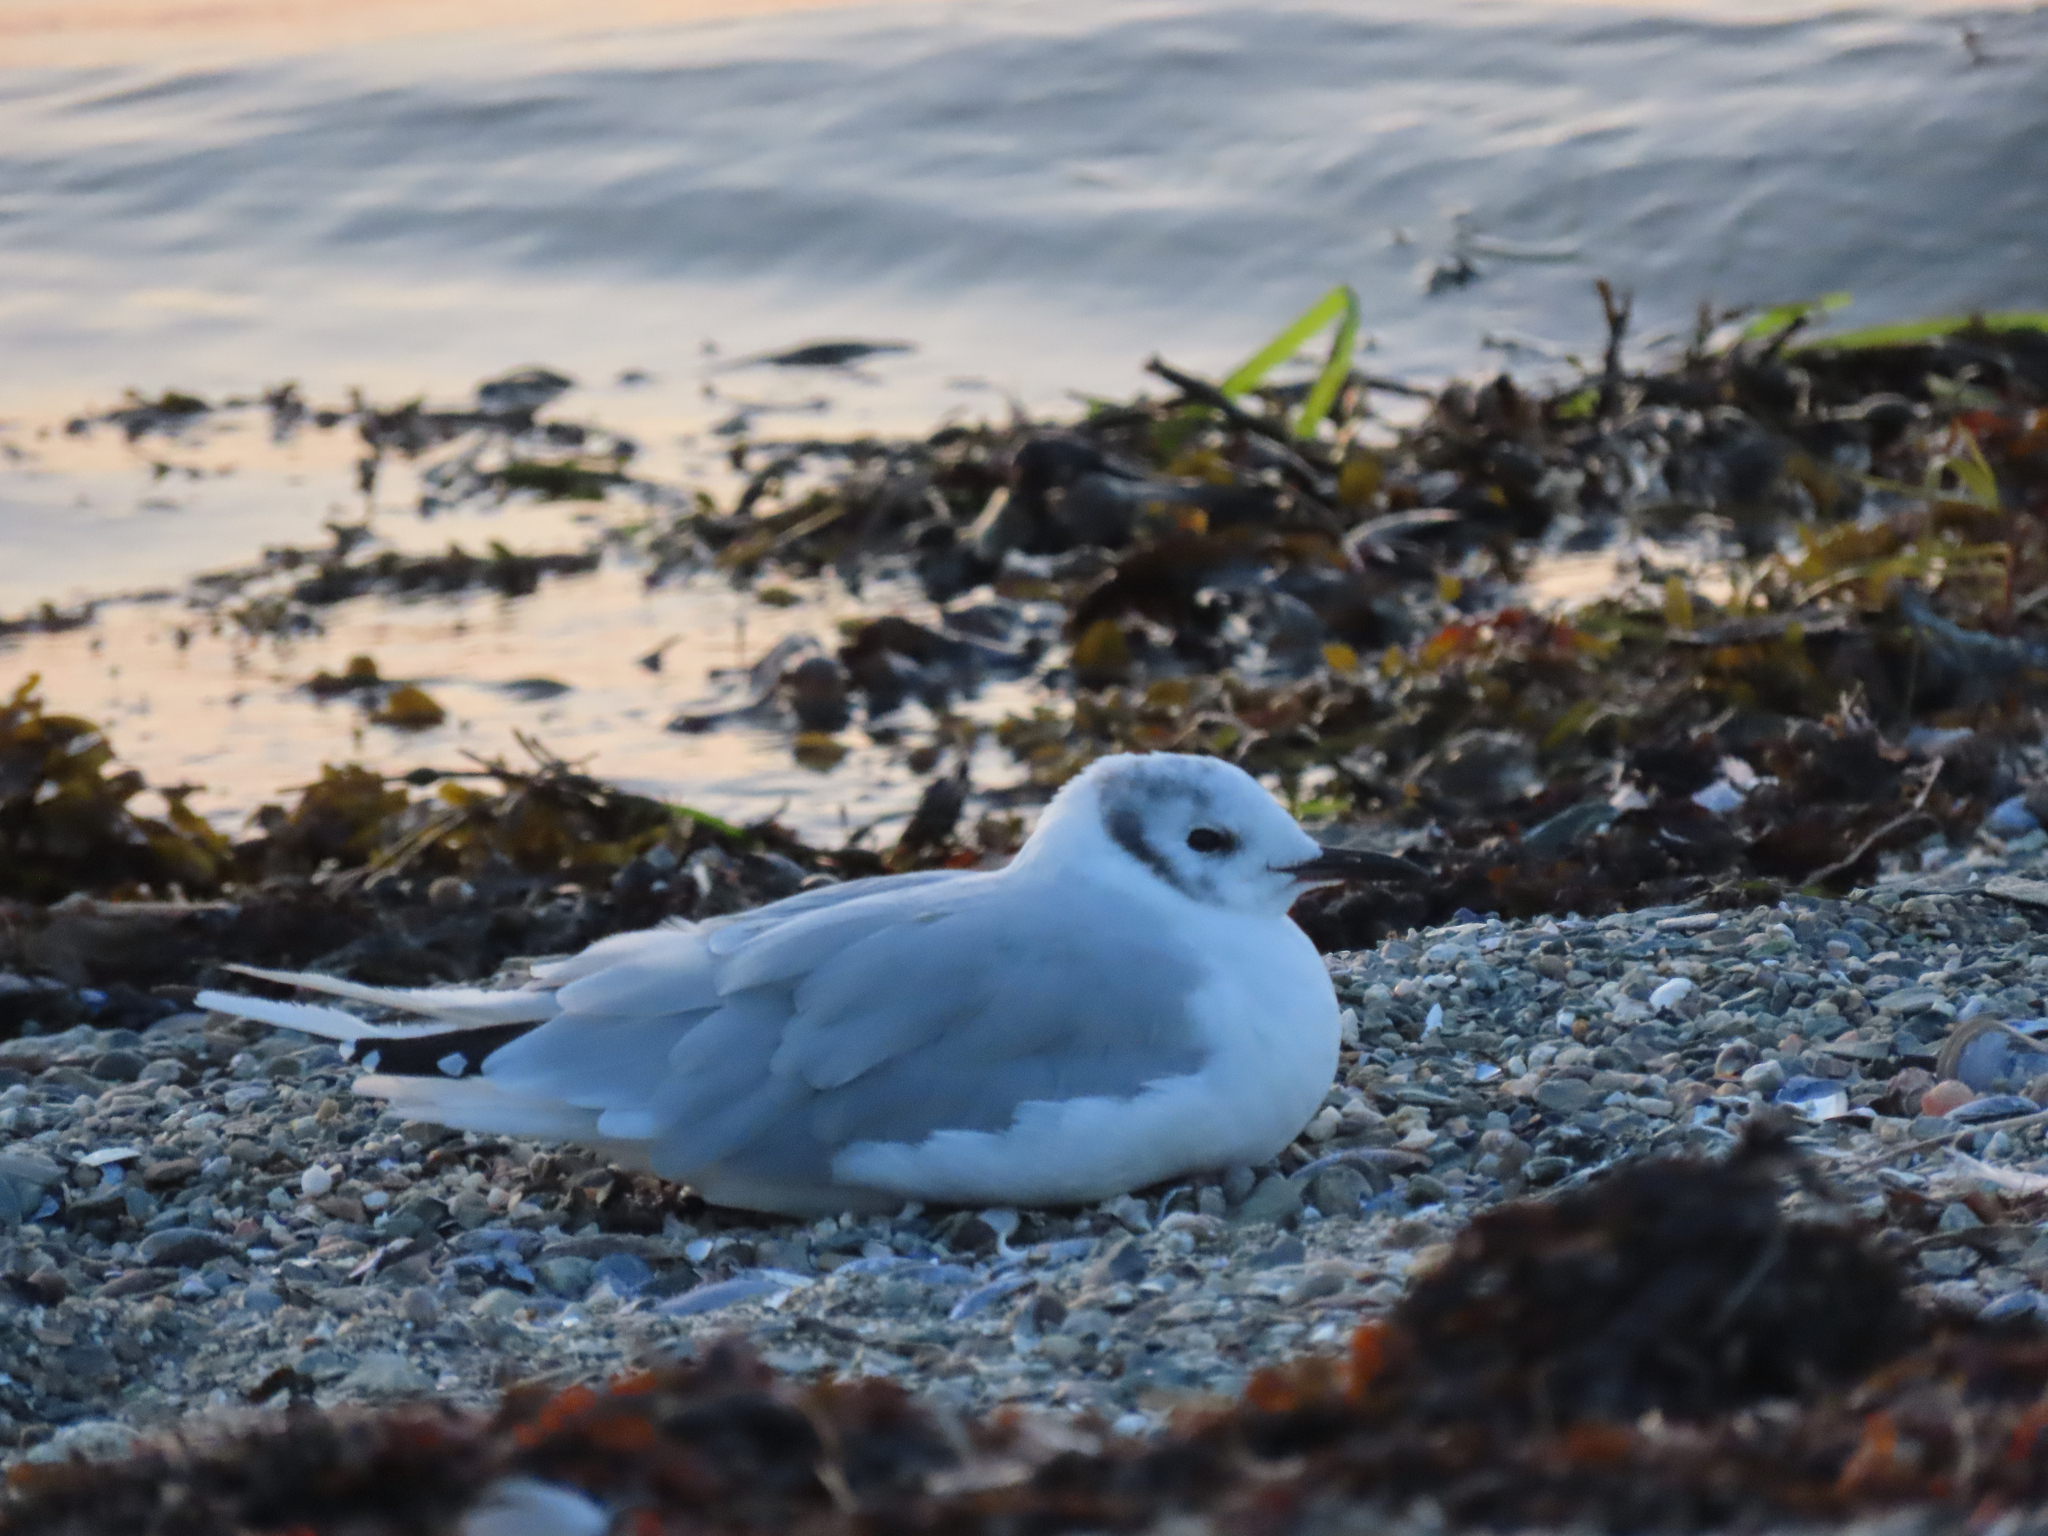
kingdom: Animalia
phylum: Chordata
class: Aves
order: Charadriiformes
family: Laridae
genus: Chroicocephalus
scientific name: Chroicocephalus philadelphia
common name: Bonaparte's gull
